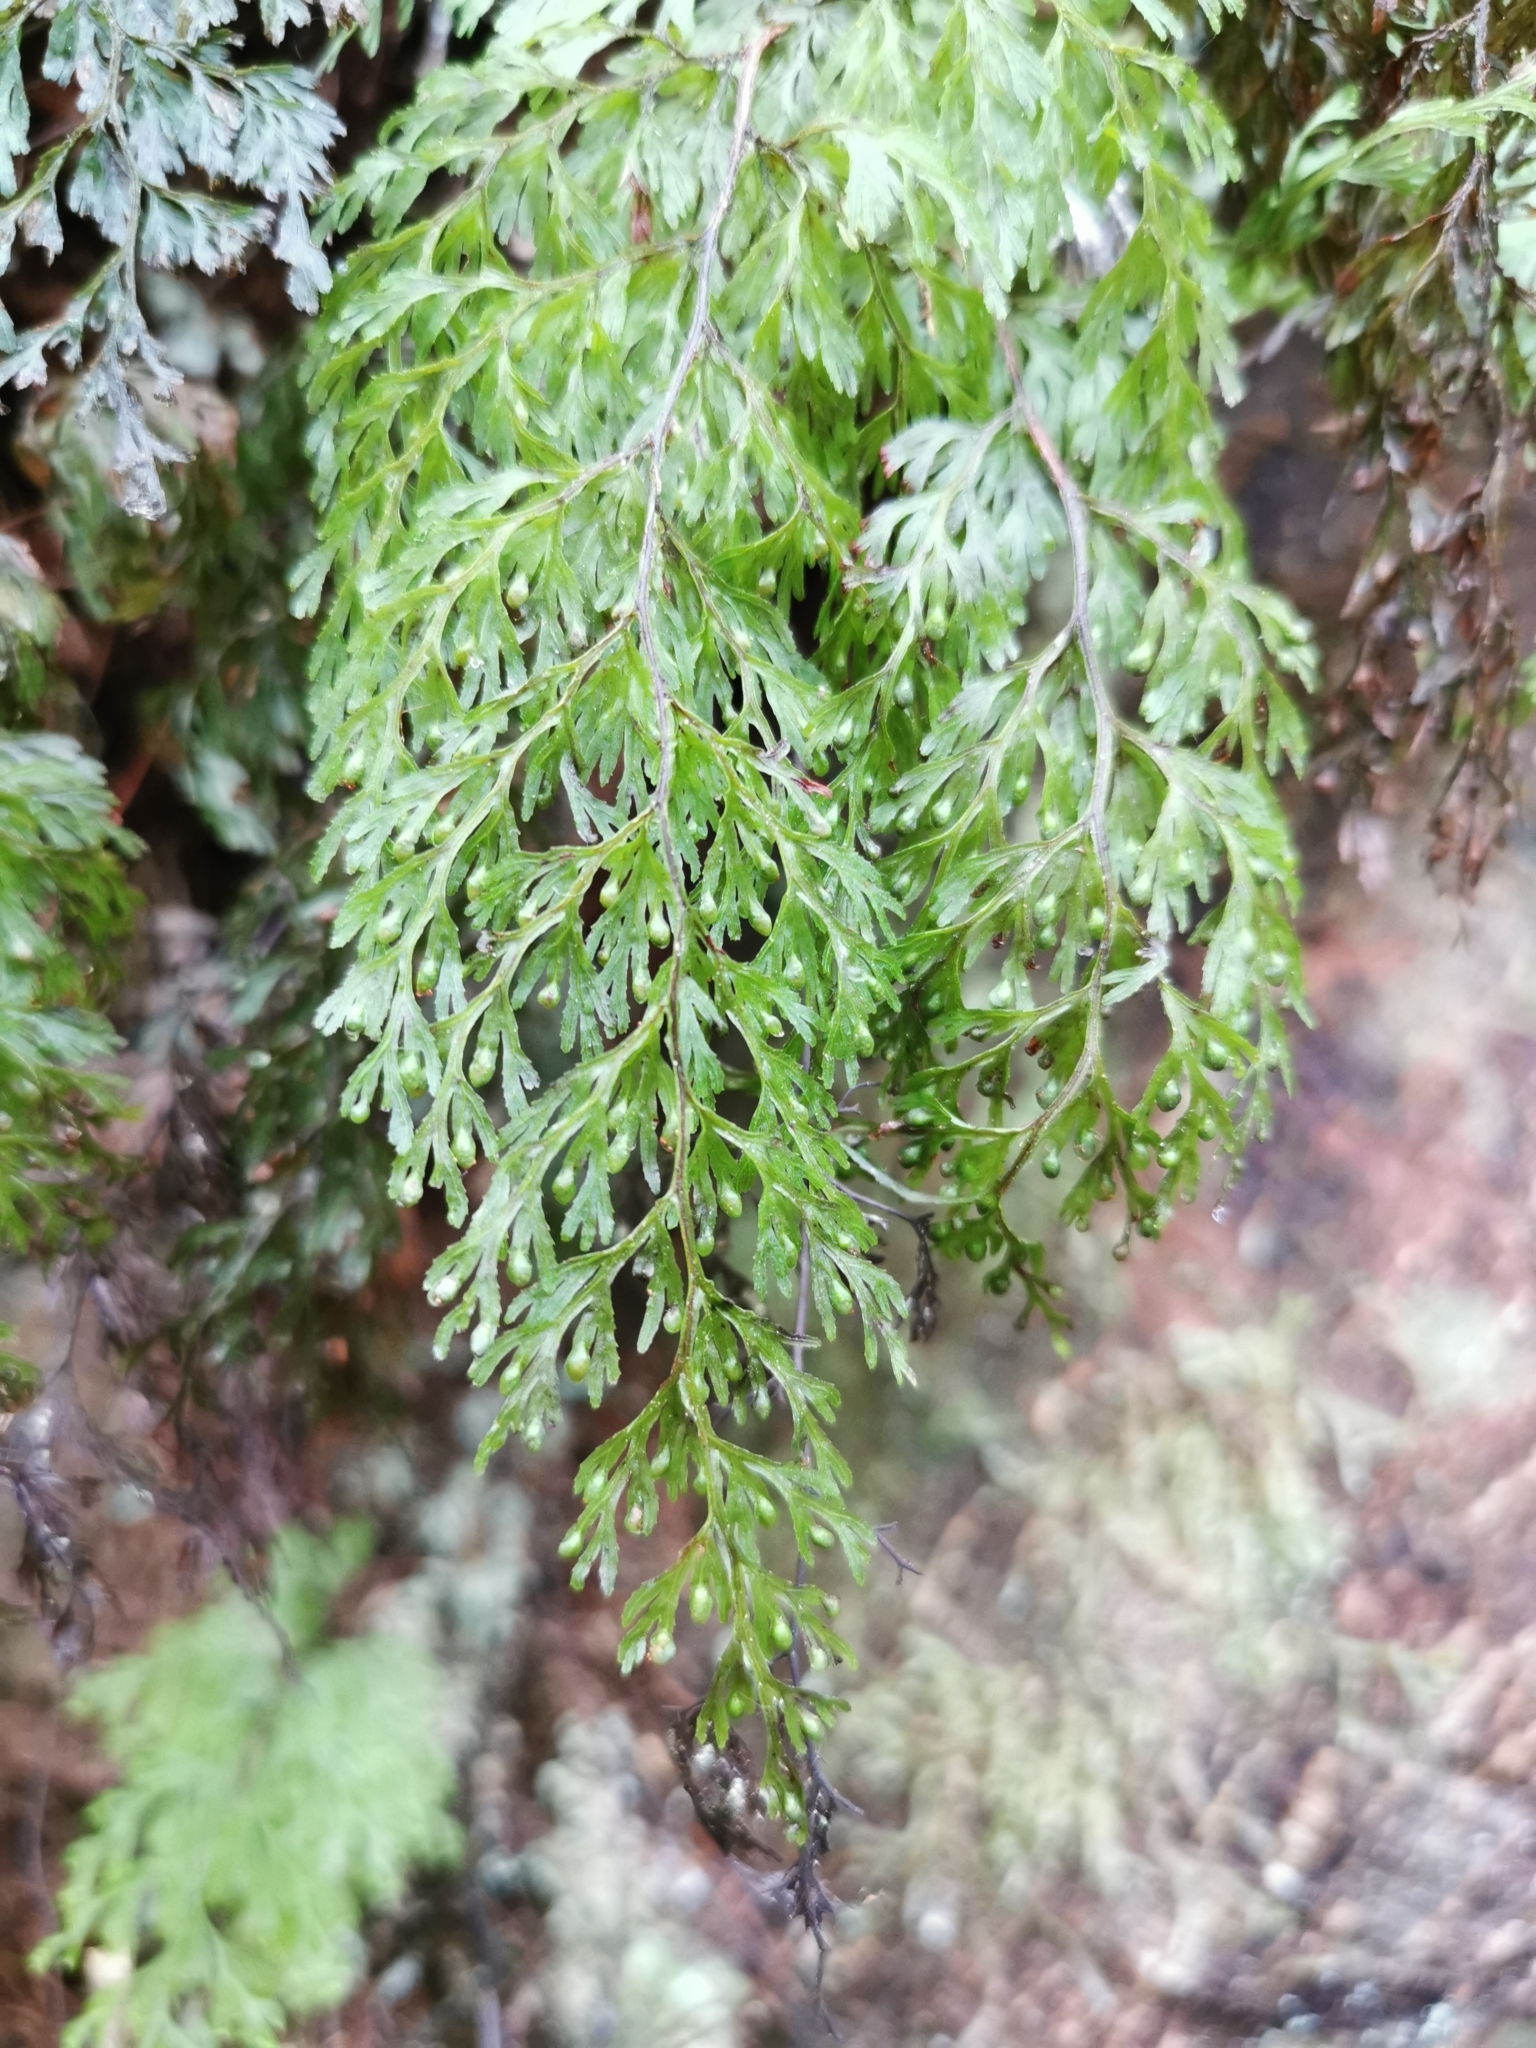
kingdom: Plantae
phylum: Tracheophyta
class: Polypodiopsida
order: Hymenophyllales
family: Hymenophyllaceae
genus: Hymenophyllum
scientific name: Hymenophyllum bivalve
